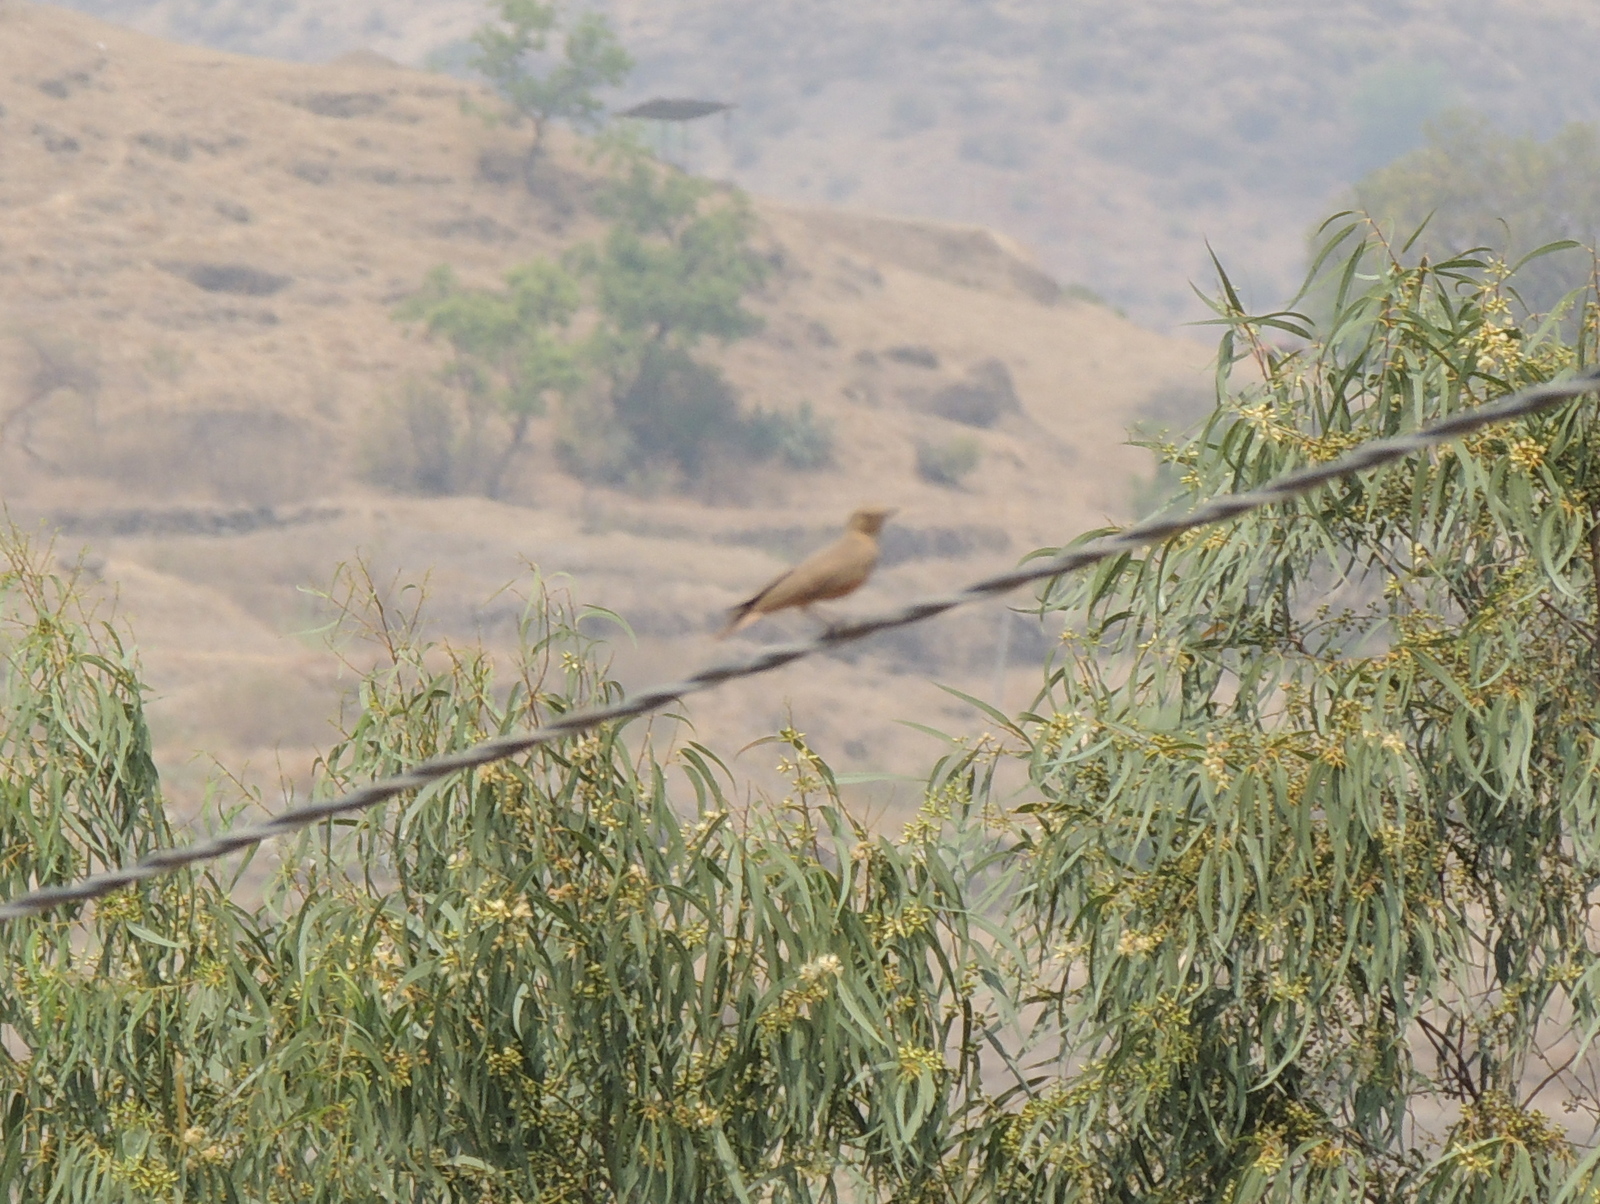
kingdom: Animalia
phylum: Chordata
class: Aves
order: Passeriformes
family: Alaudidae
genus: Ammomanes
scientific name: Ammomanes phoenicura
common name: Rufous-tailed lark
